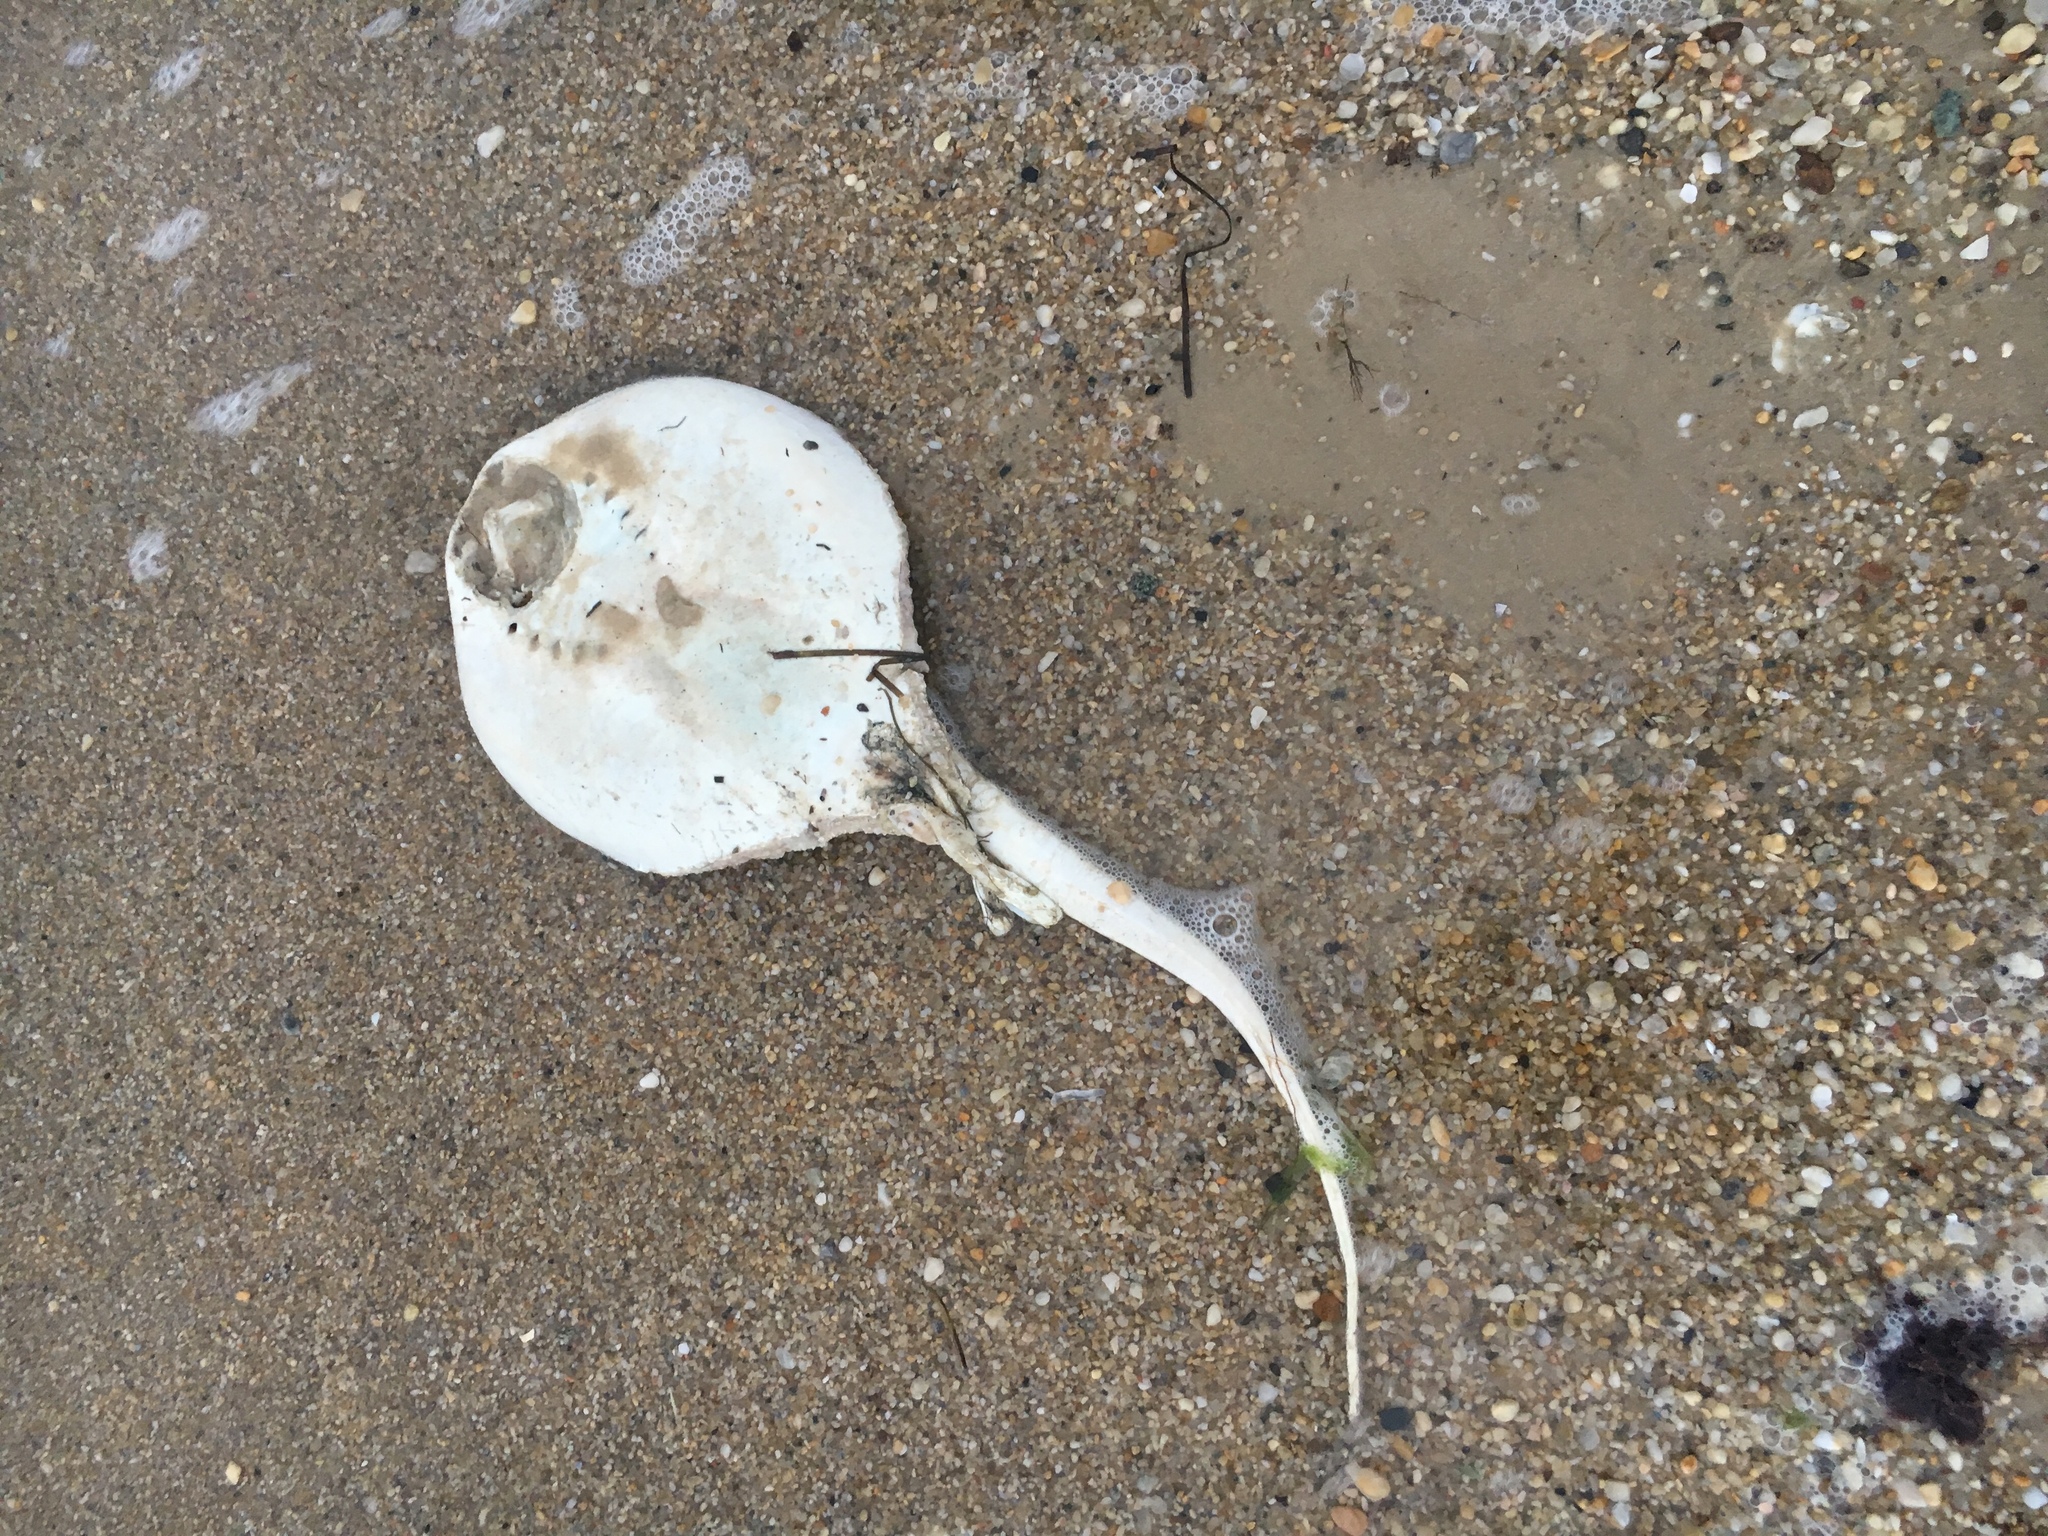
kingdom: Animalia
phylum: Chordata
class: Elasmobranchii
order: Myliobatiformes
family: Dasyatidae
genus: Hypanus
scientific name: Hypanus sabinus
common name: Atlantic stingray
